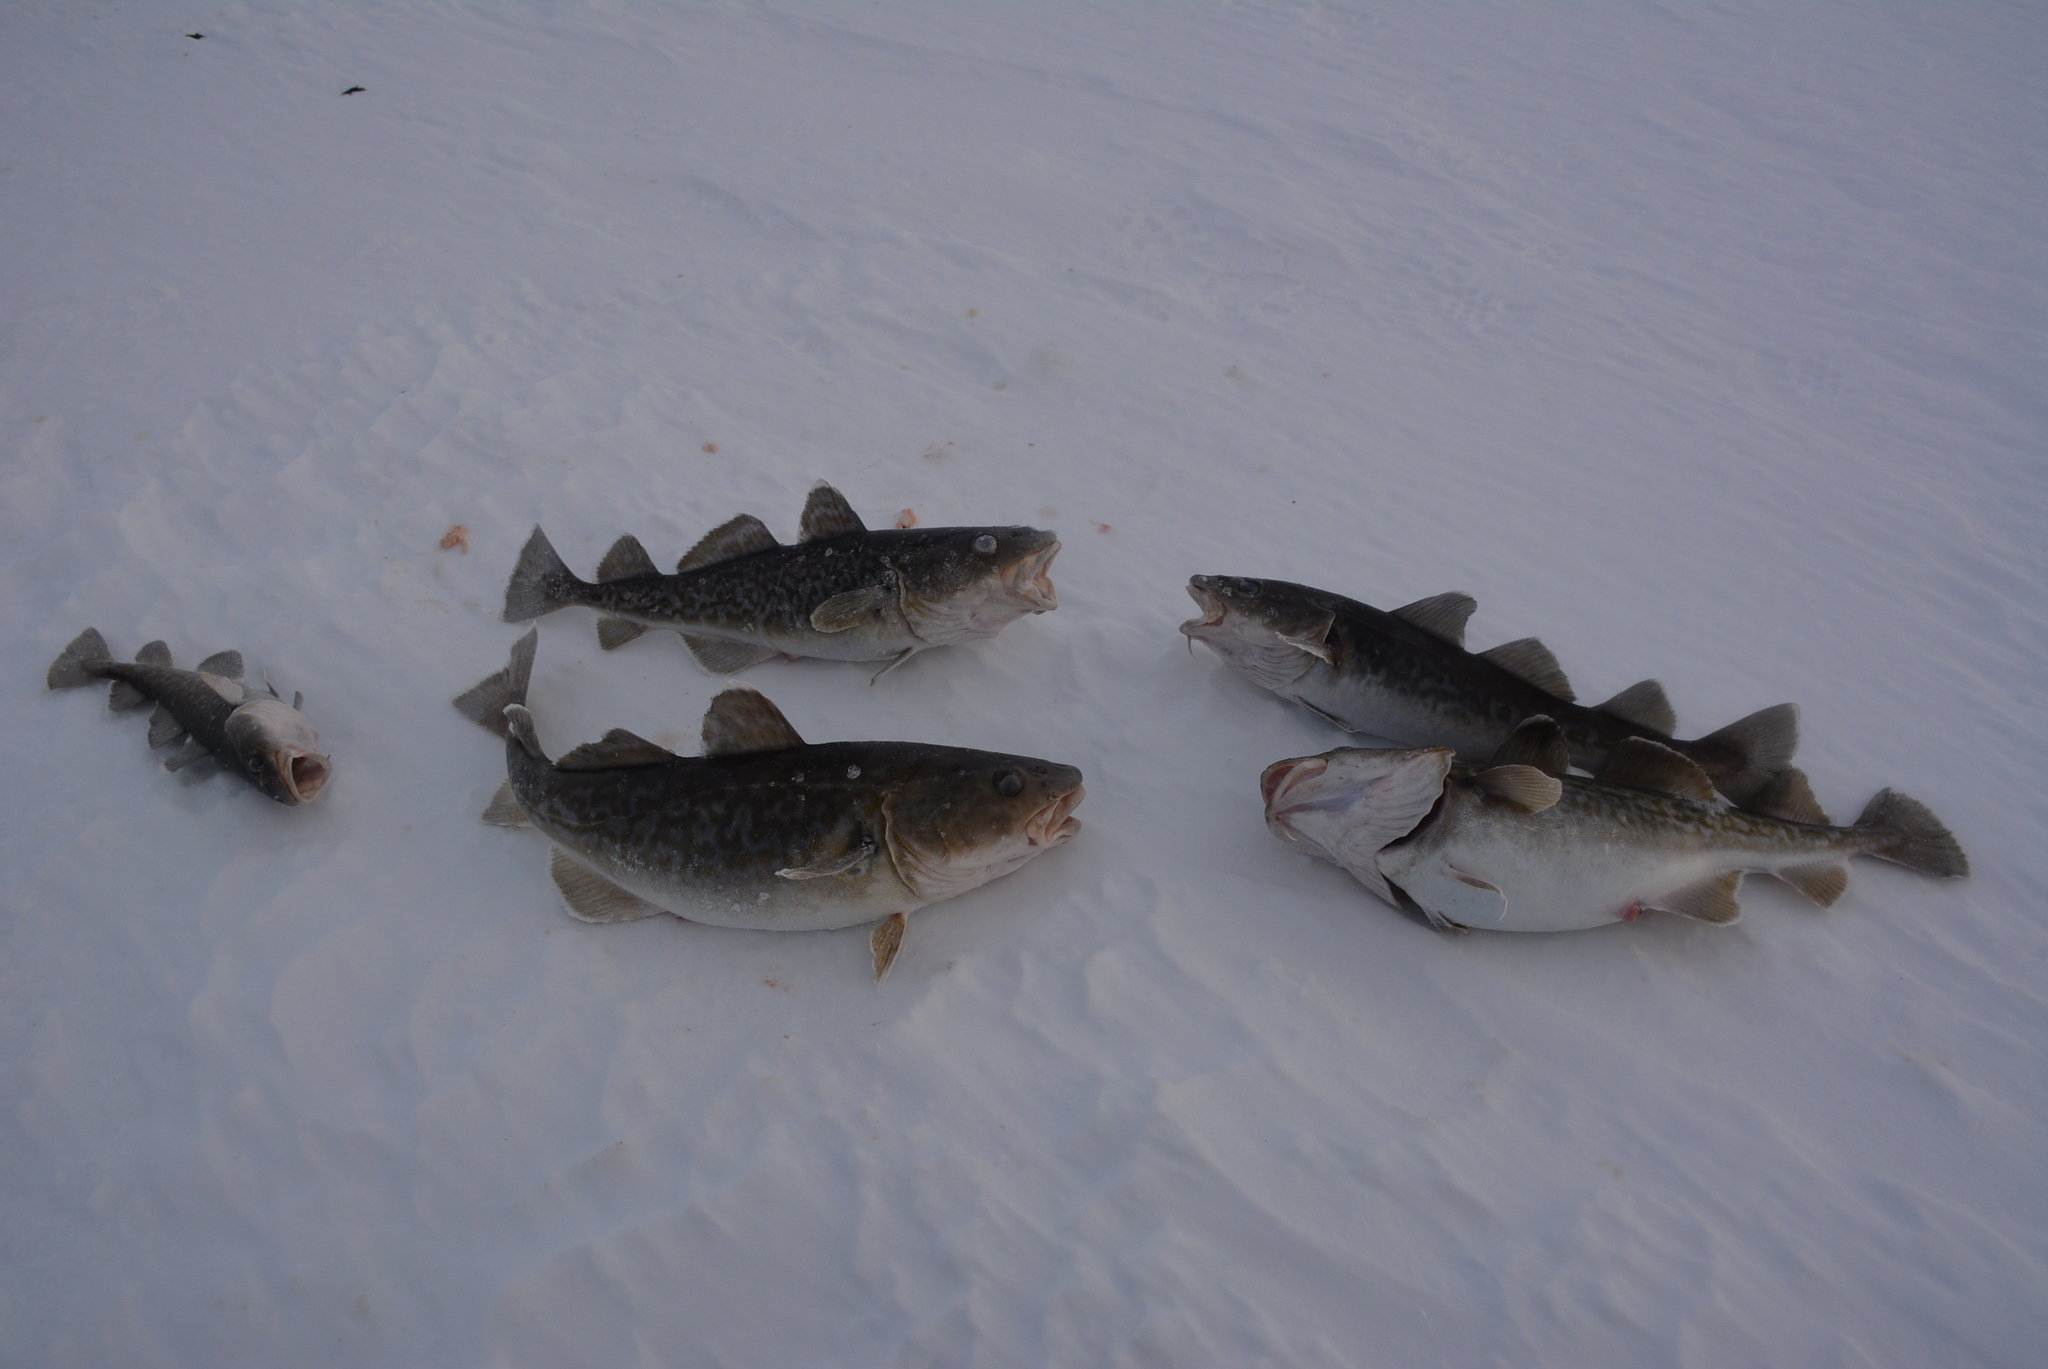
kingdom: Animalia
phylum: Chordata
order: Gadiformes
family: Gadidae
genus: Gadus
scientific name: Gadus macrocephalus
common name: Pacific cod
